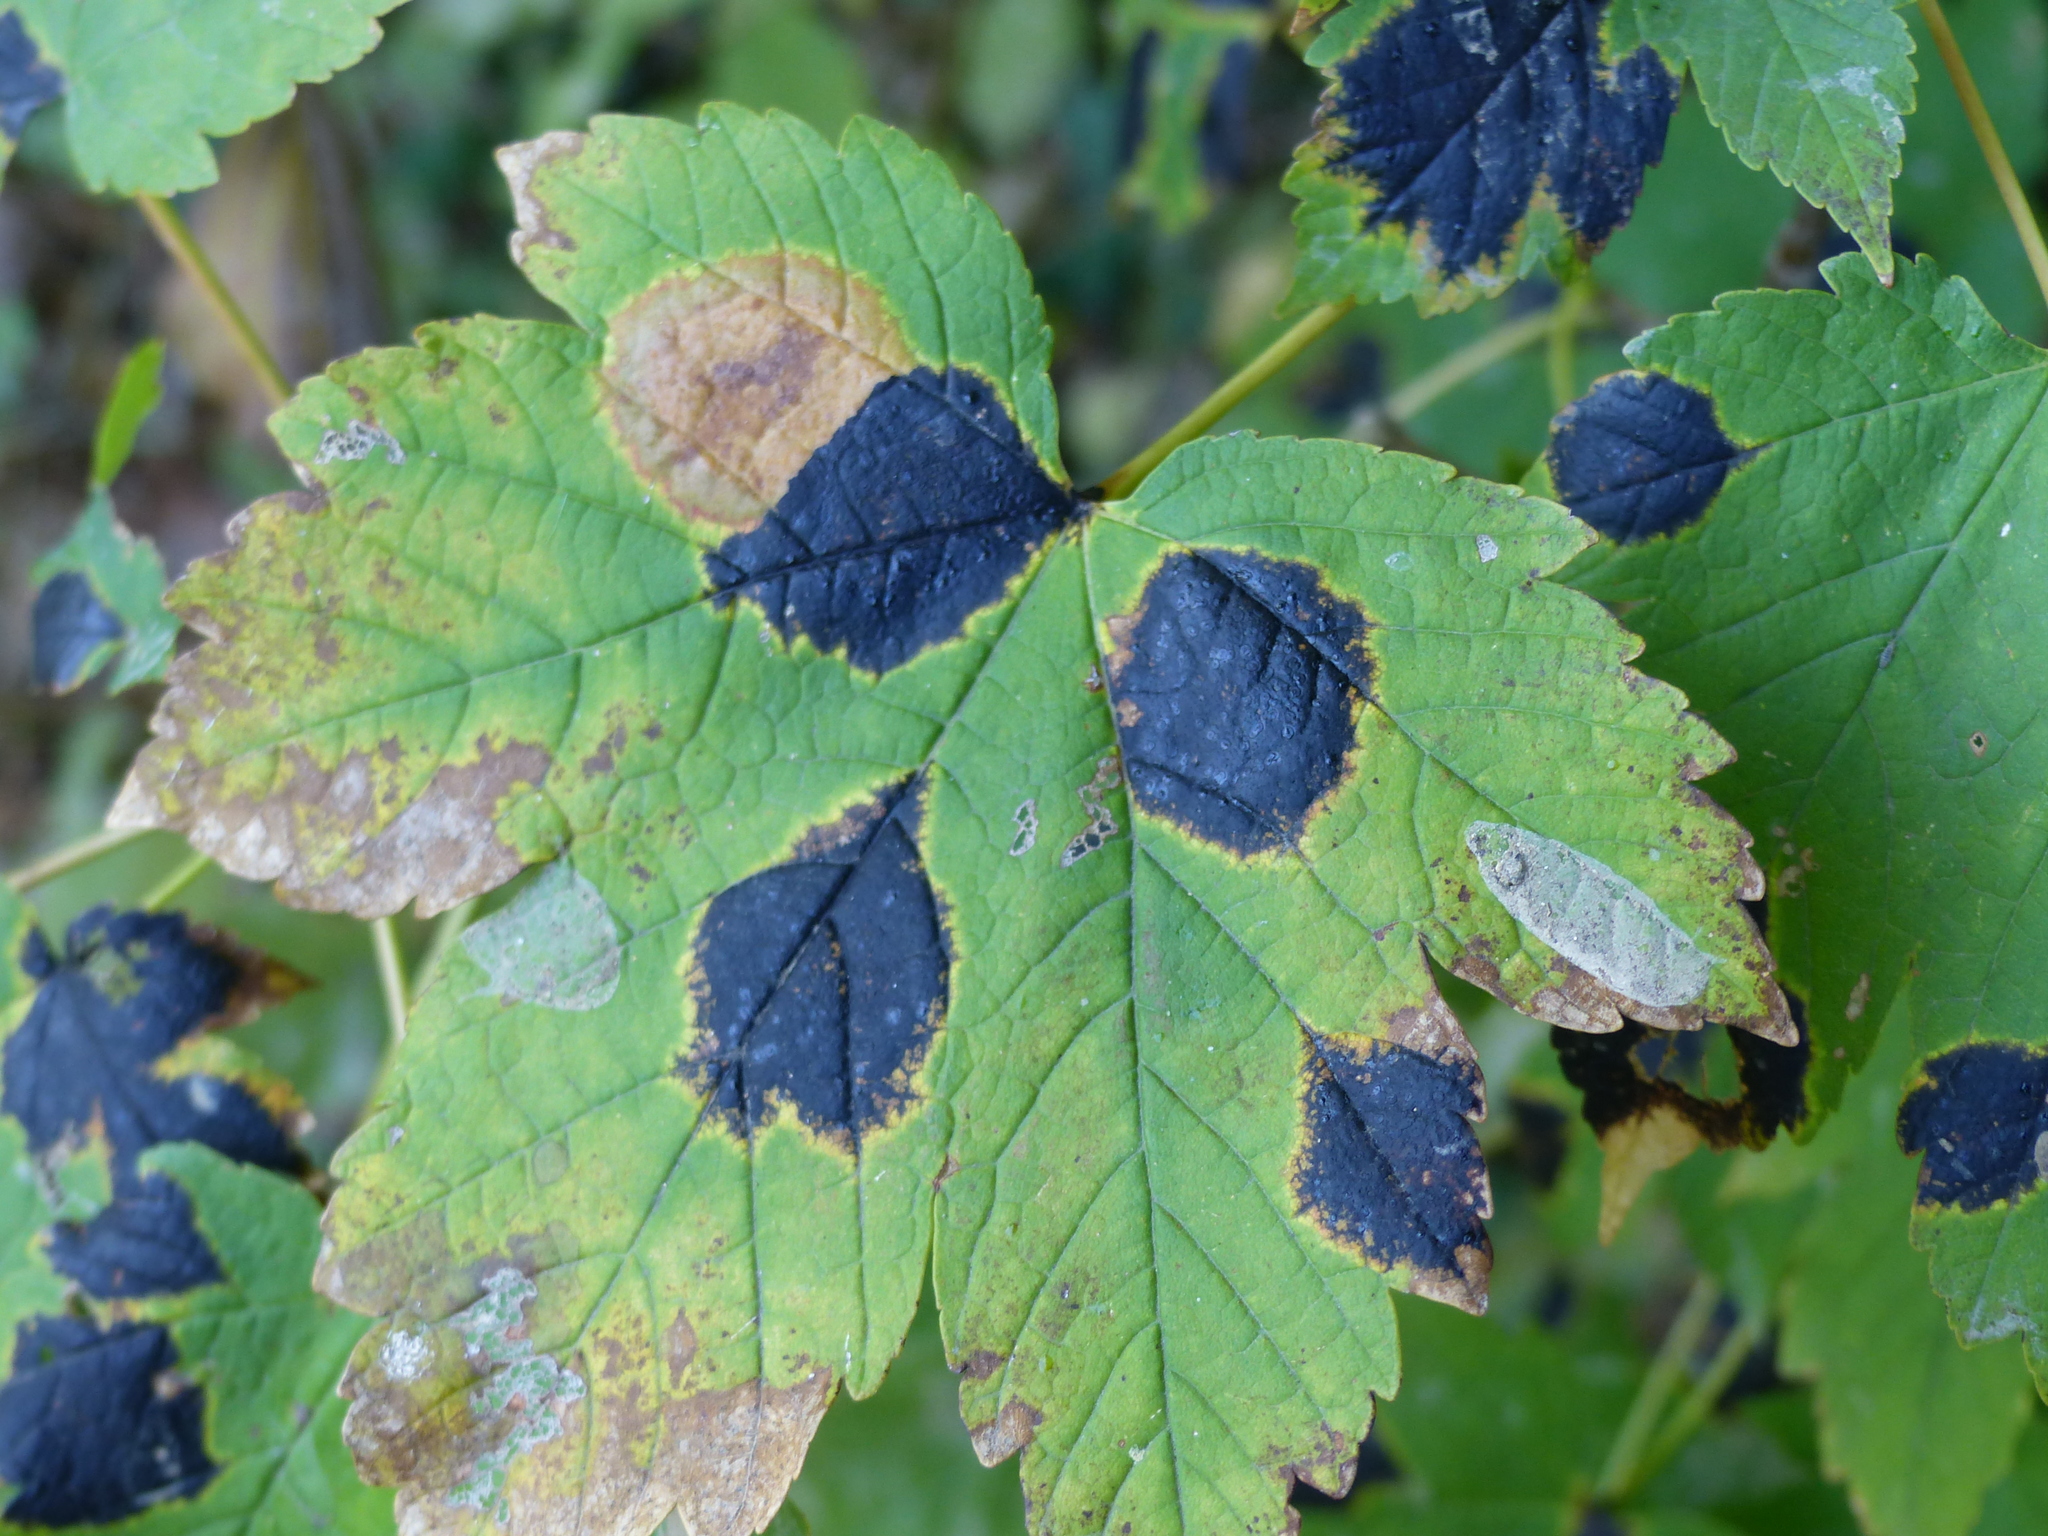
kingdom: Fungi
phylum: Ascomycota
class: Leotiomycetes
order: Rhytismatales
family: Rhytismataceae
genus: Rhytisma
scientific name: Rhytisma acerinum
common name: European tar spot
